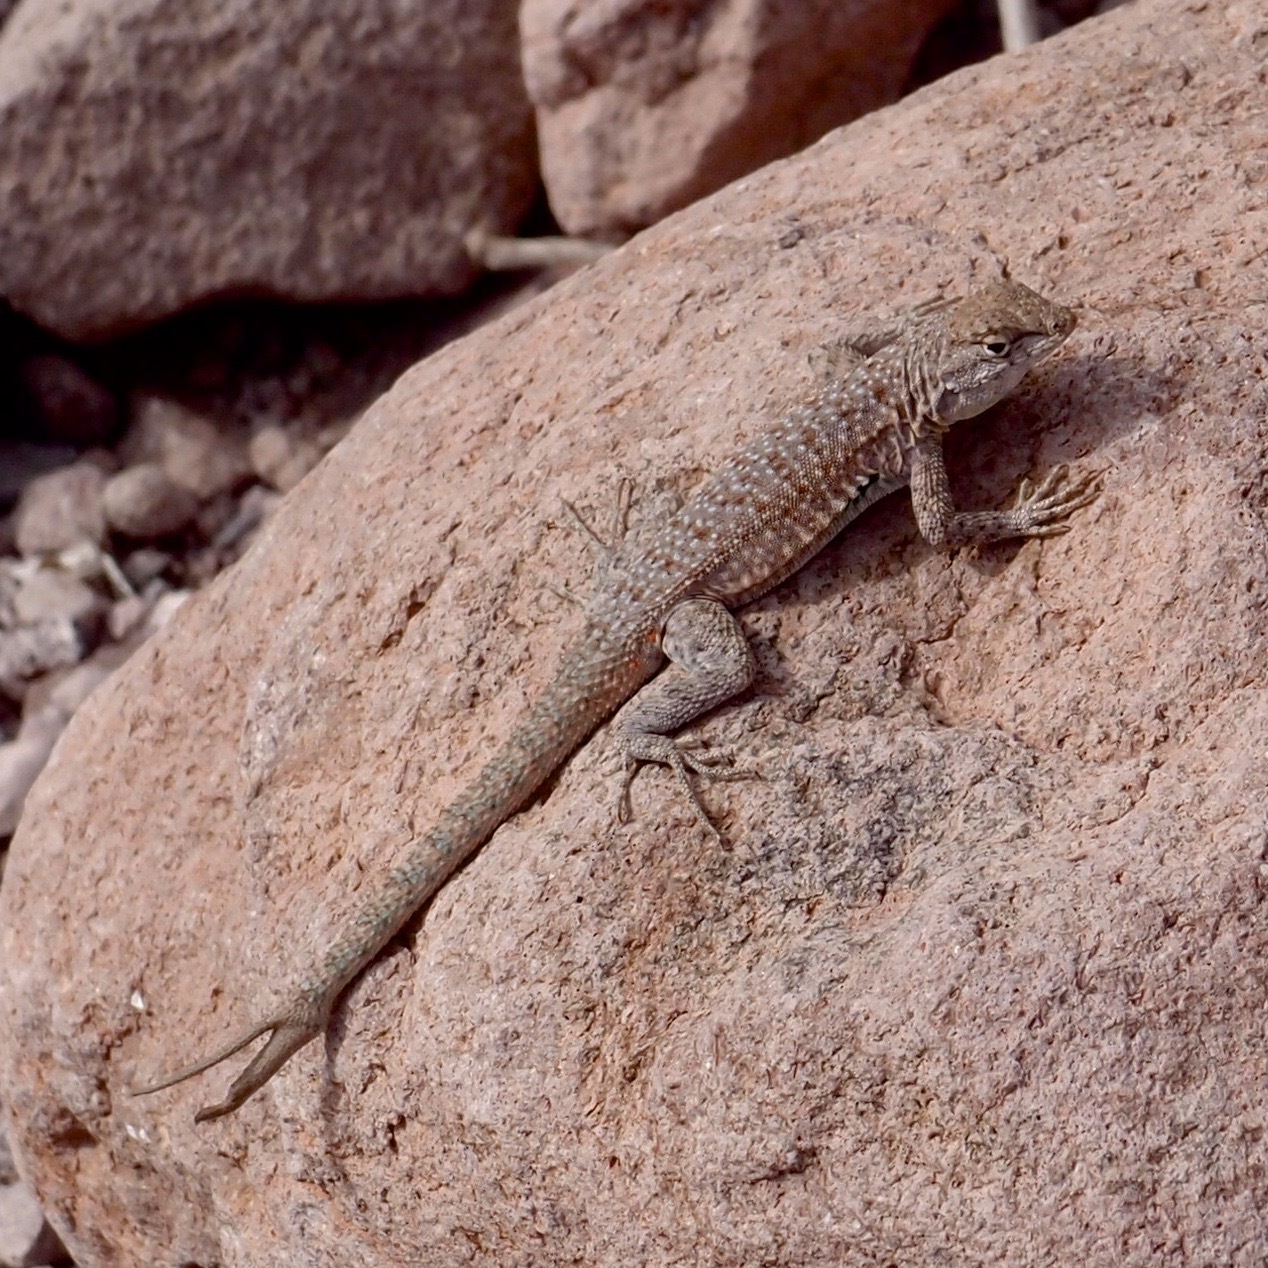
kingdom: Animalia
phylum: Chordata
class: Squamata
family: Phrynosomatidae
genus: Uta
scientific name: Uta stansburiana
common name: Side-blotched lizard
